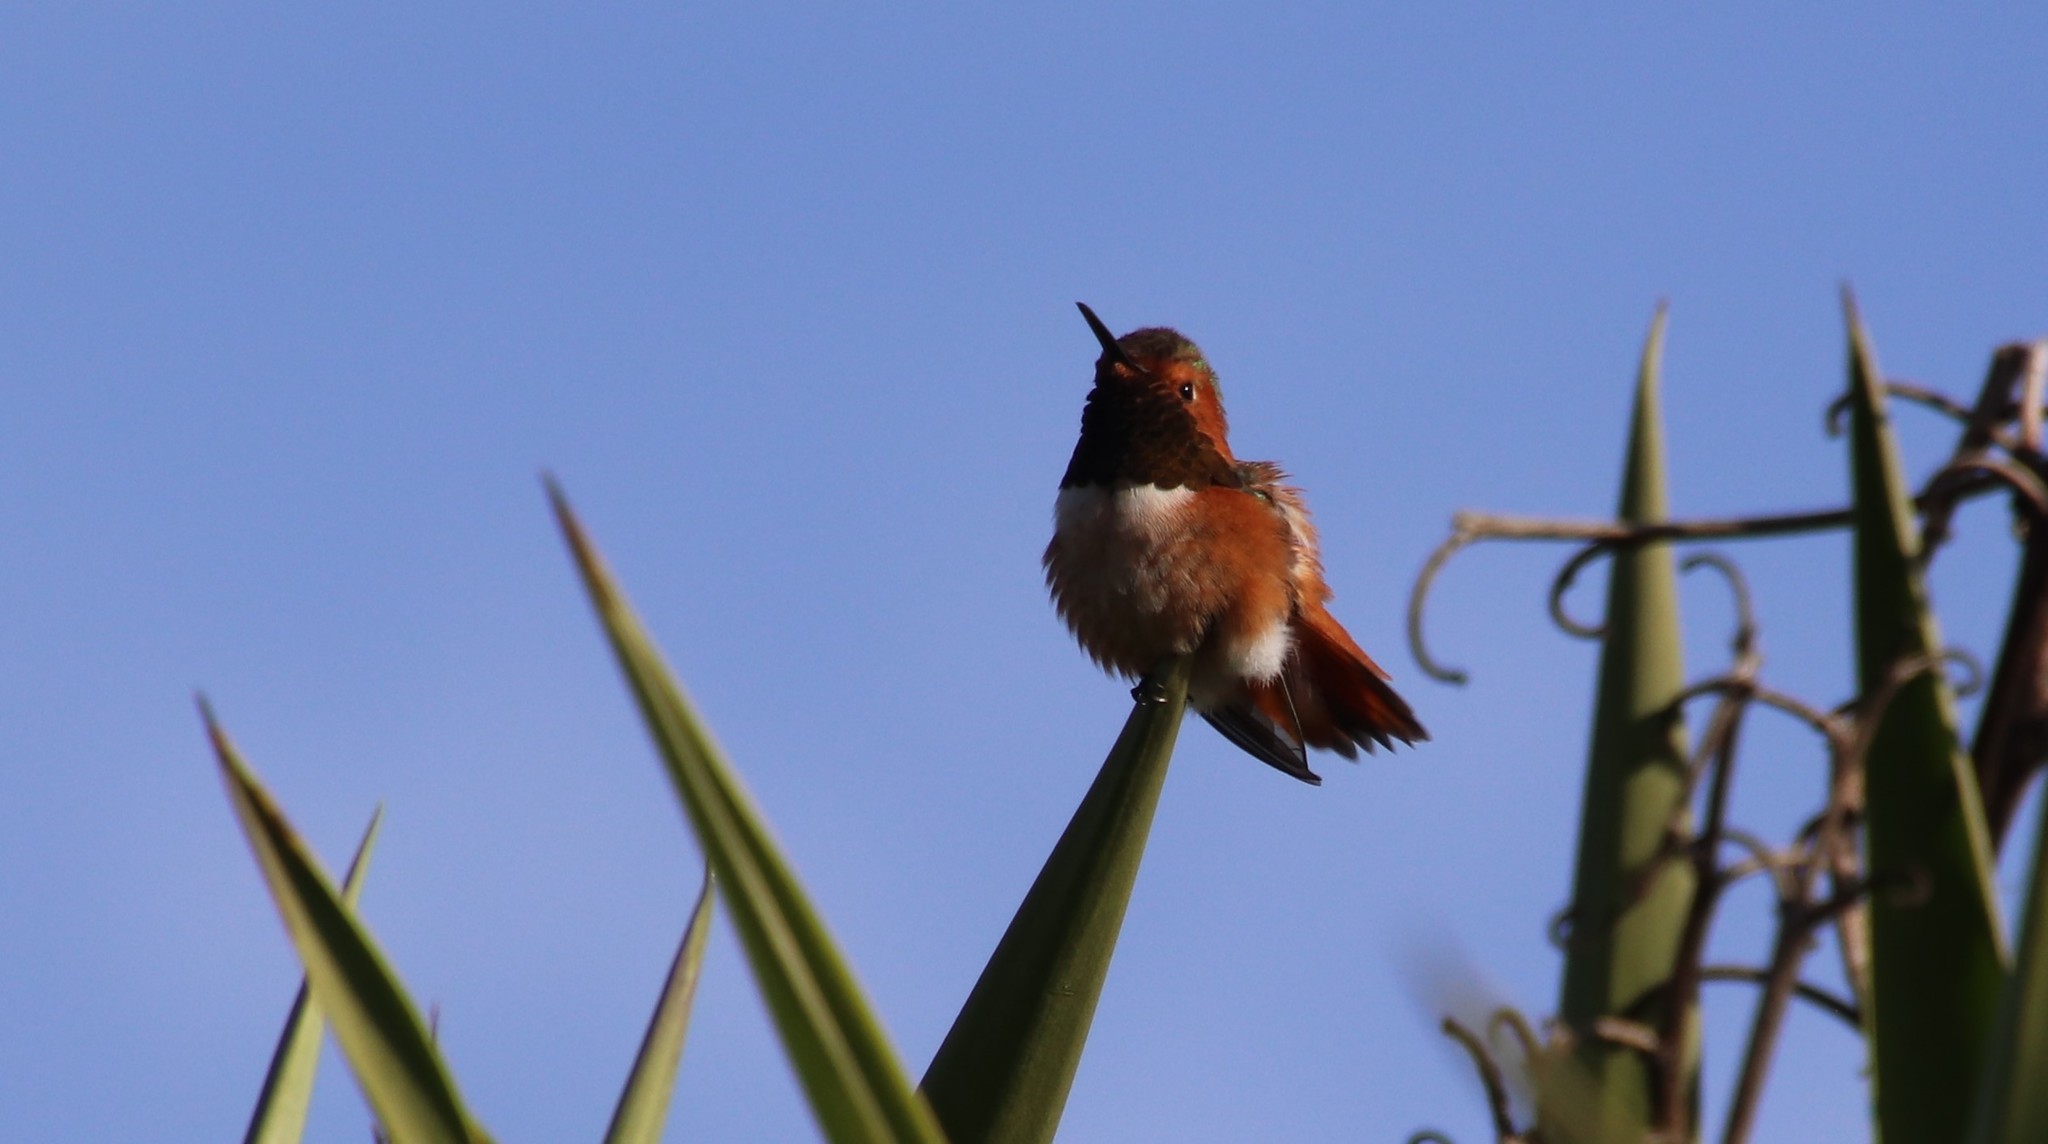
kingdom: Animalia
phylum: Chordata
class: Aves
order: Apodiformes
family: Trochilidae
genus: Selasphorus
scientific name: Selasphorus sasin
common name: Allen's hummingbird
